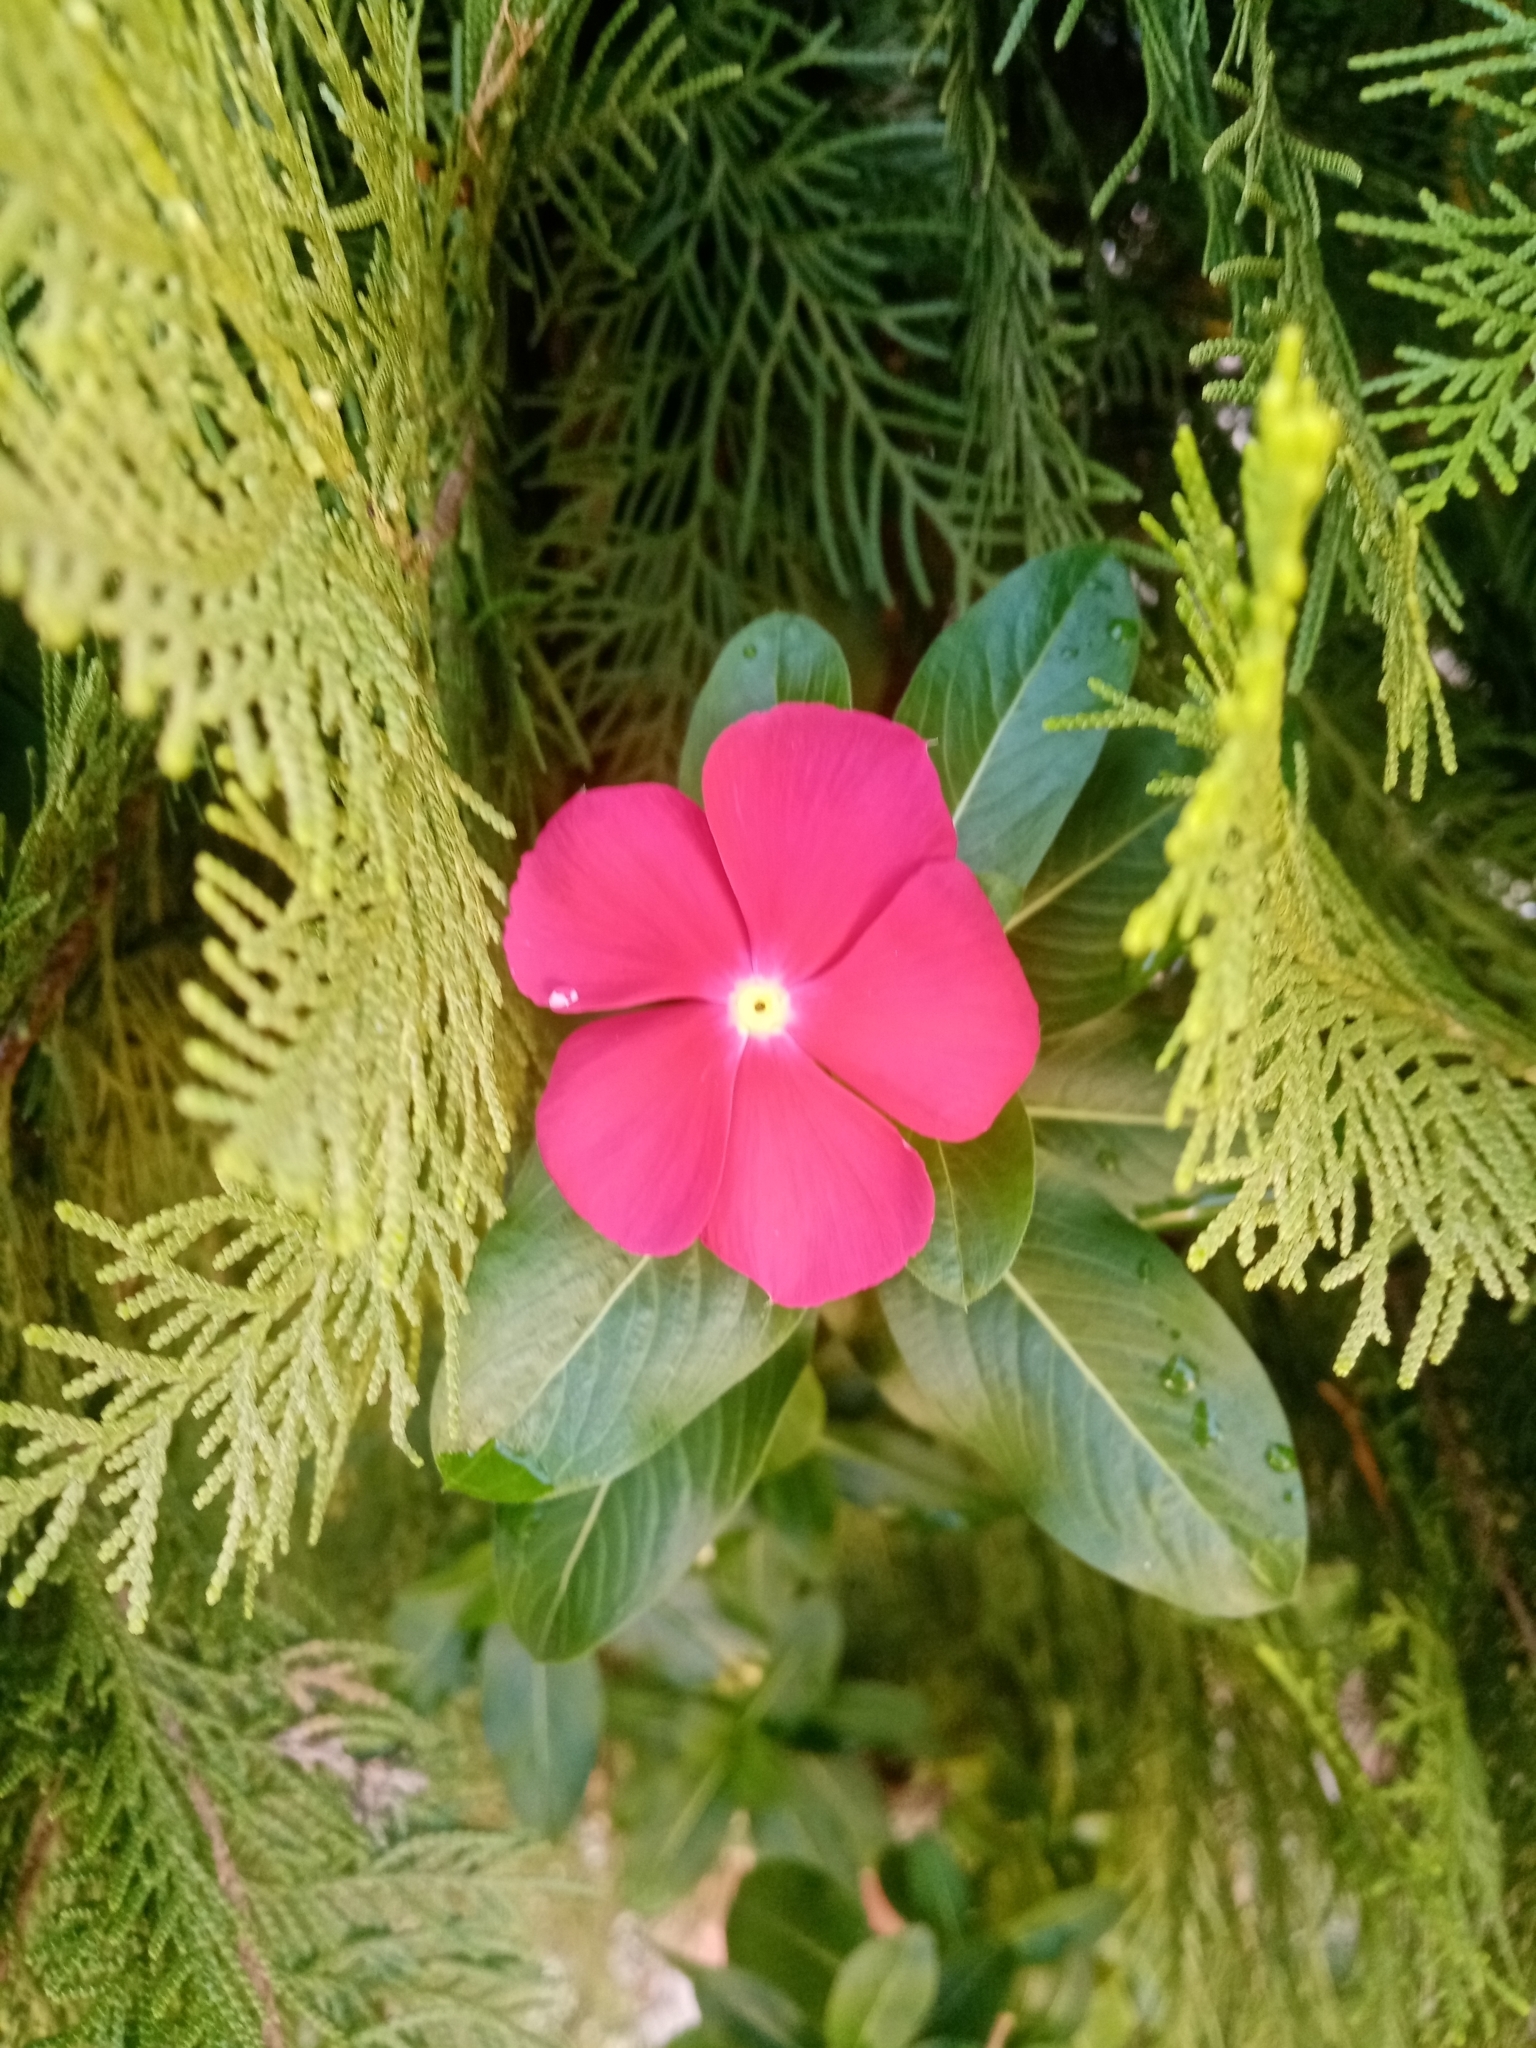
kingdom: Plantae
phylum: Tracheophyta
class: Magnoliopsida
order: Gentianales
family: Apocynaceae
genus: Catharanthus
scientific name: Catharanthus roseus
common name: Madagascar periwinkle
